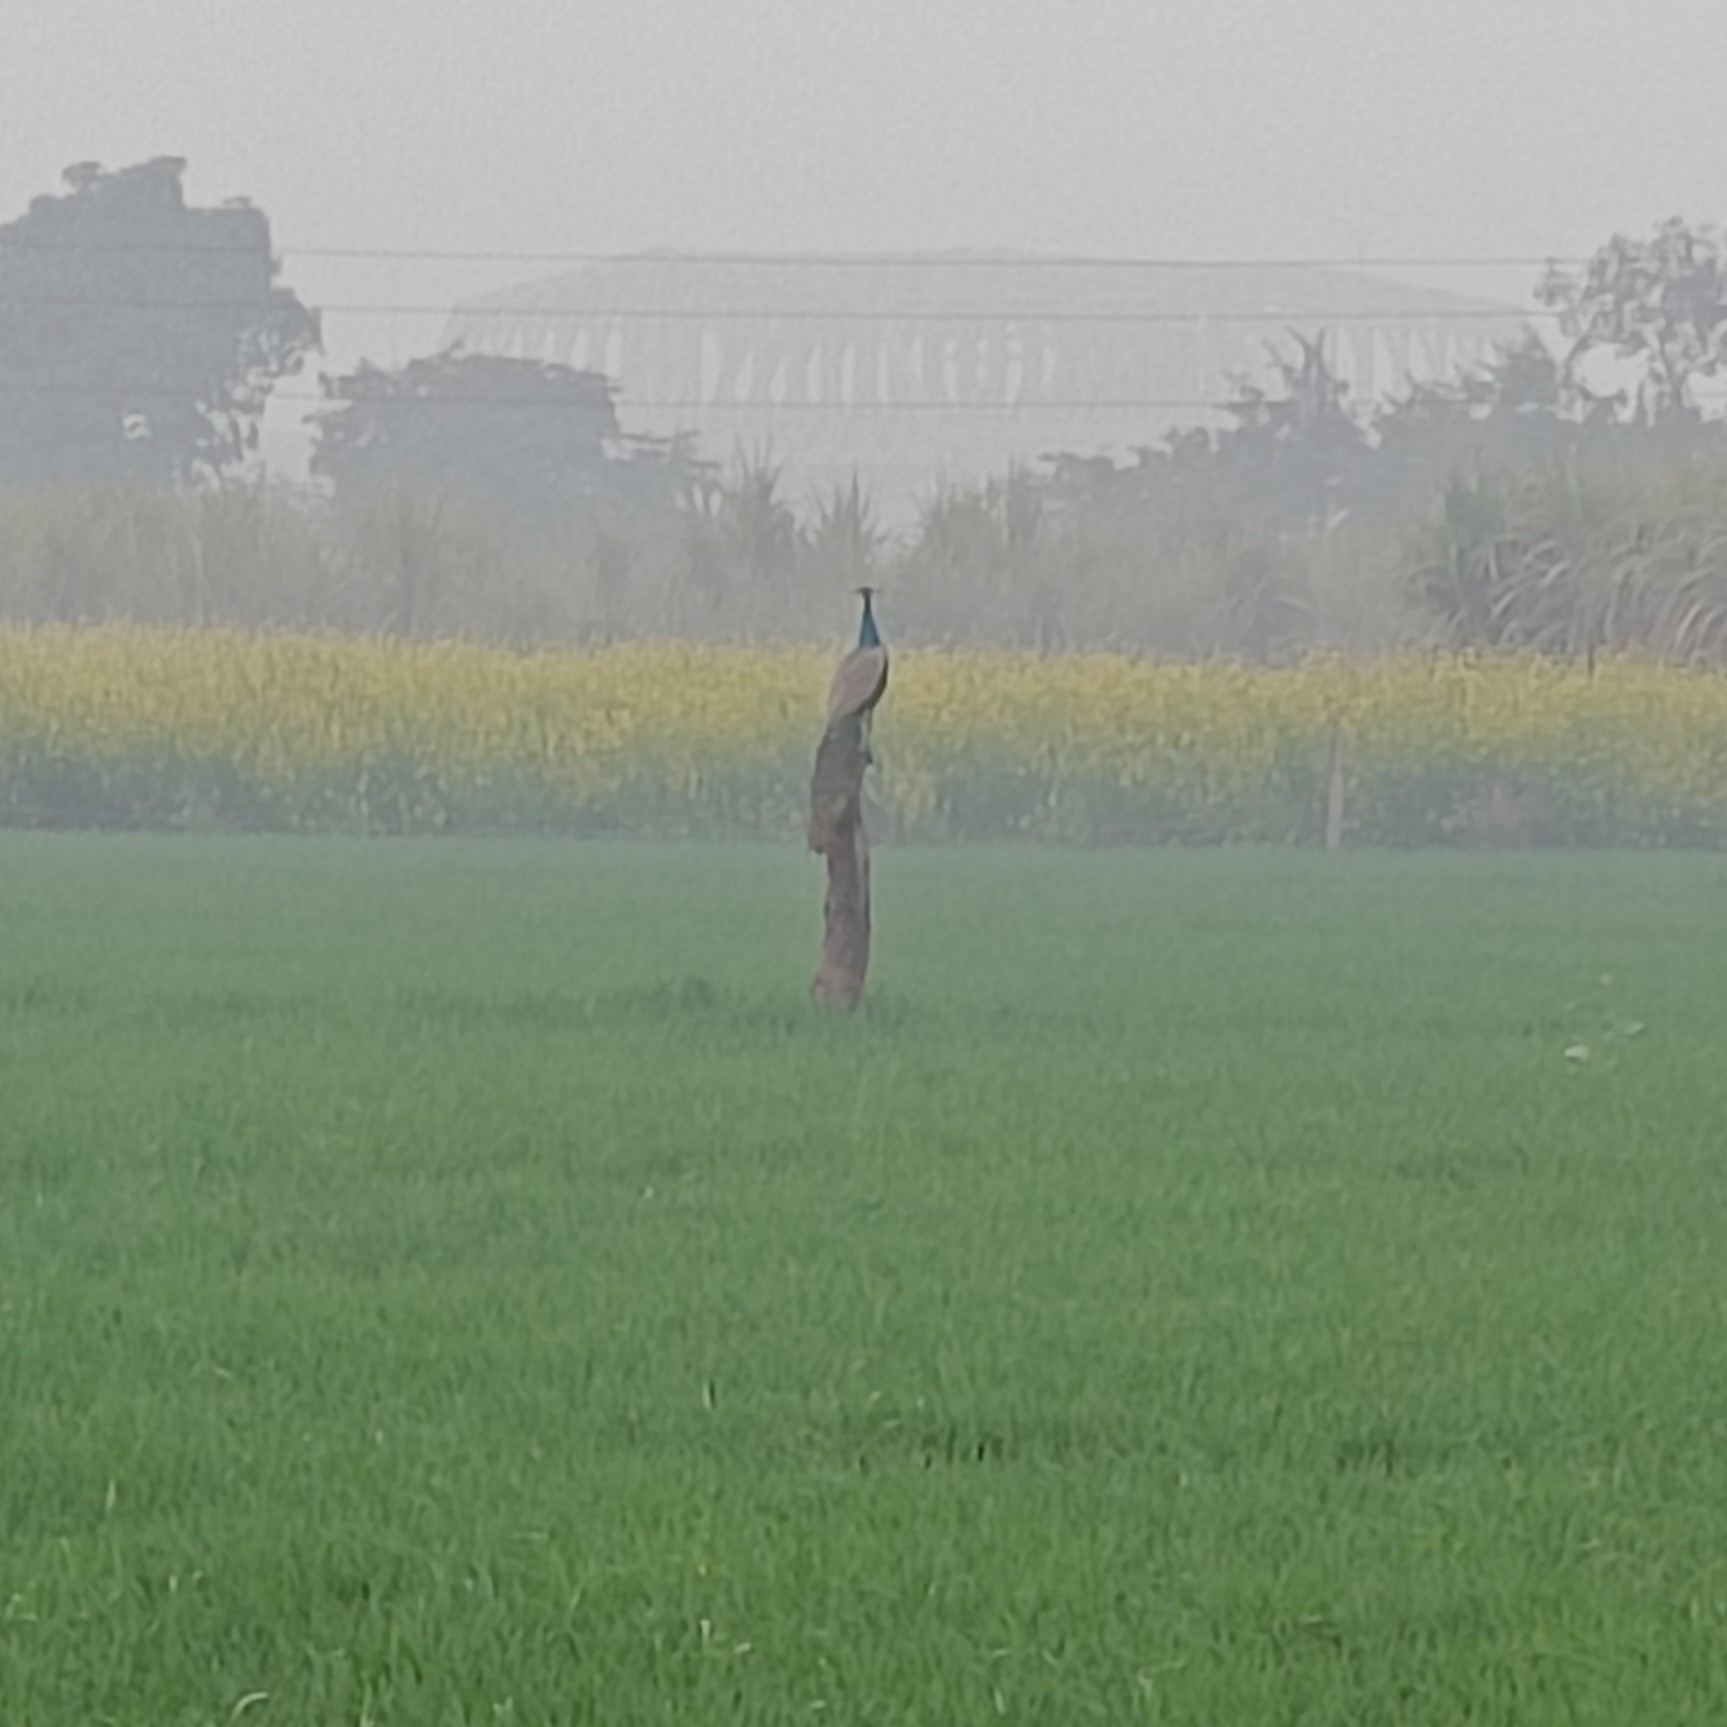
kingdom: Animalia
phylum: Chordata
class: Aves
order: Galliformes
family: Phasianidae
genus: Pavo
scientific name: Pavo cristatus
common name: Indian peafowl
